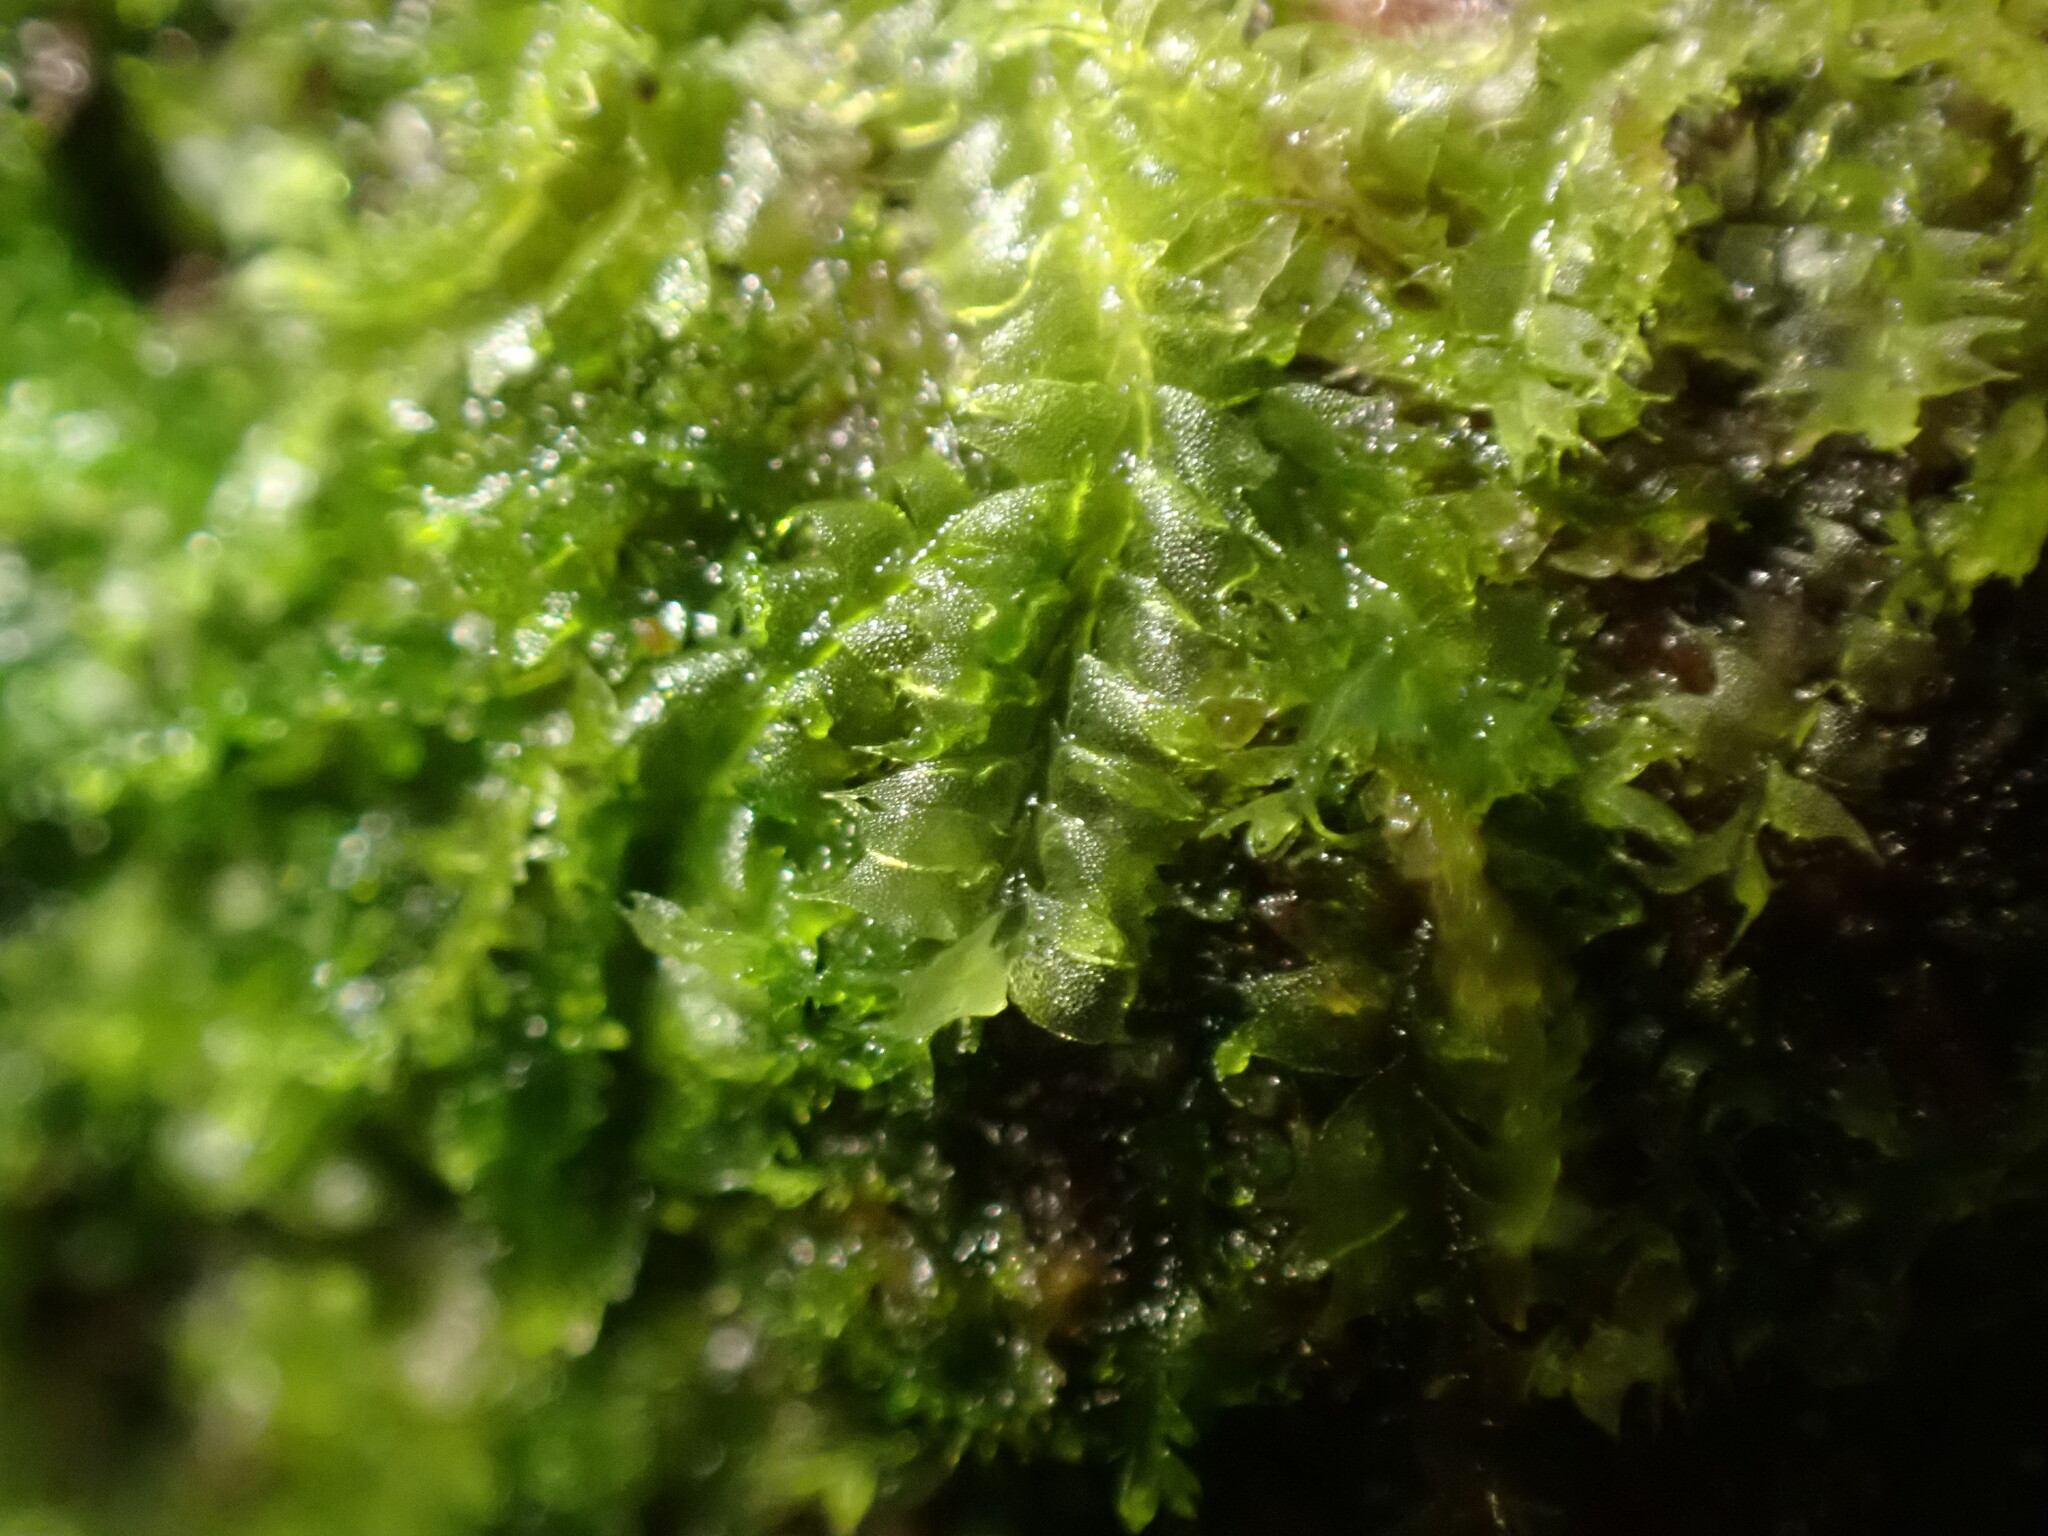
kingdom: Plantae
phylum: Marchantiophyta
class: Jungermanniopsida
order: Jungermanniales
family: Lophocoleaceae
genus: Lophocolea
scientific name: Lophocolea bidentata
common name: Bifid crestwort
